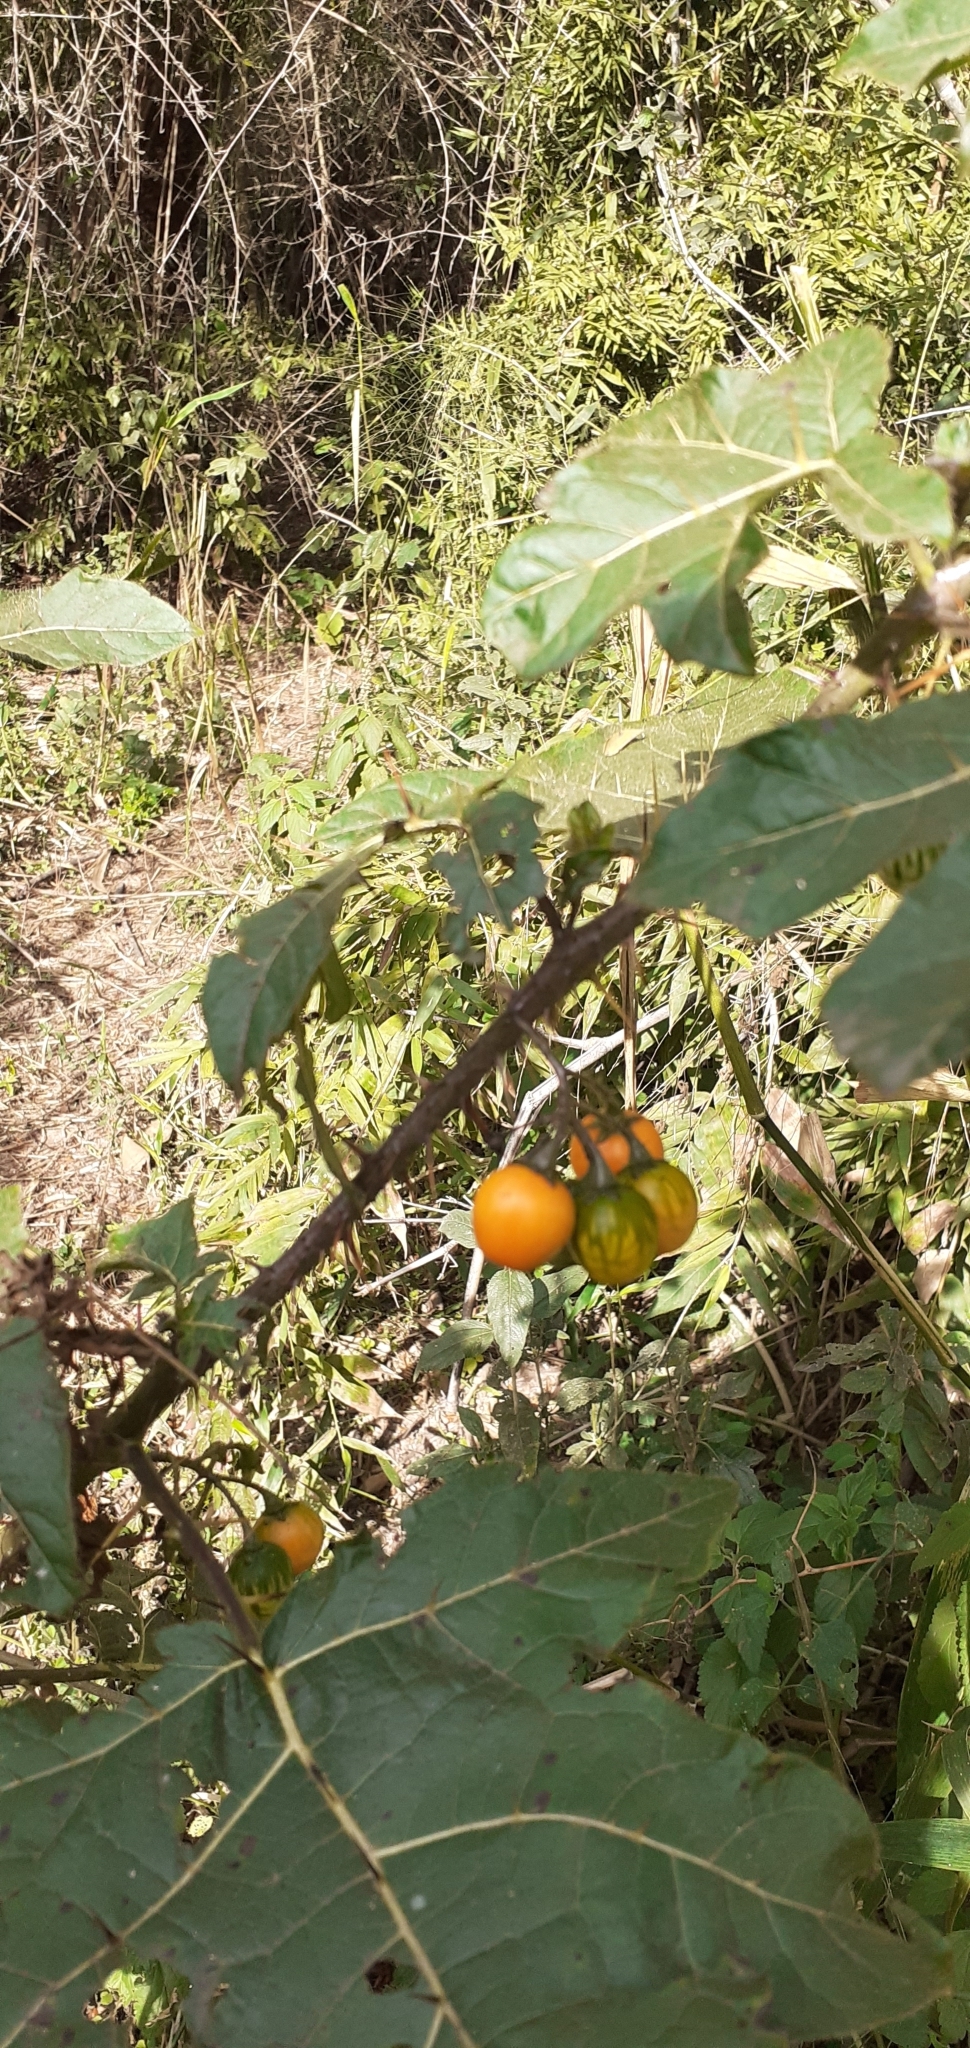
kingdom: Plantae
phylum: Tracheophyta
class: Magnoliopsida
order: Solanales
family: Solanaceae
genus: Solanum
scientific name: Solanum atropurpureum
